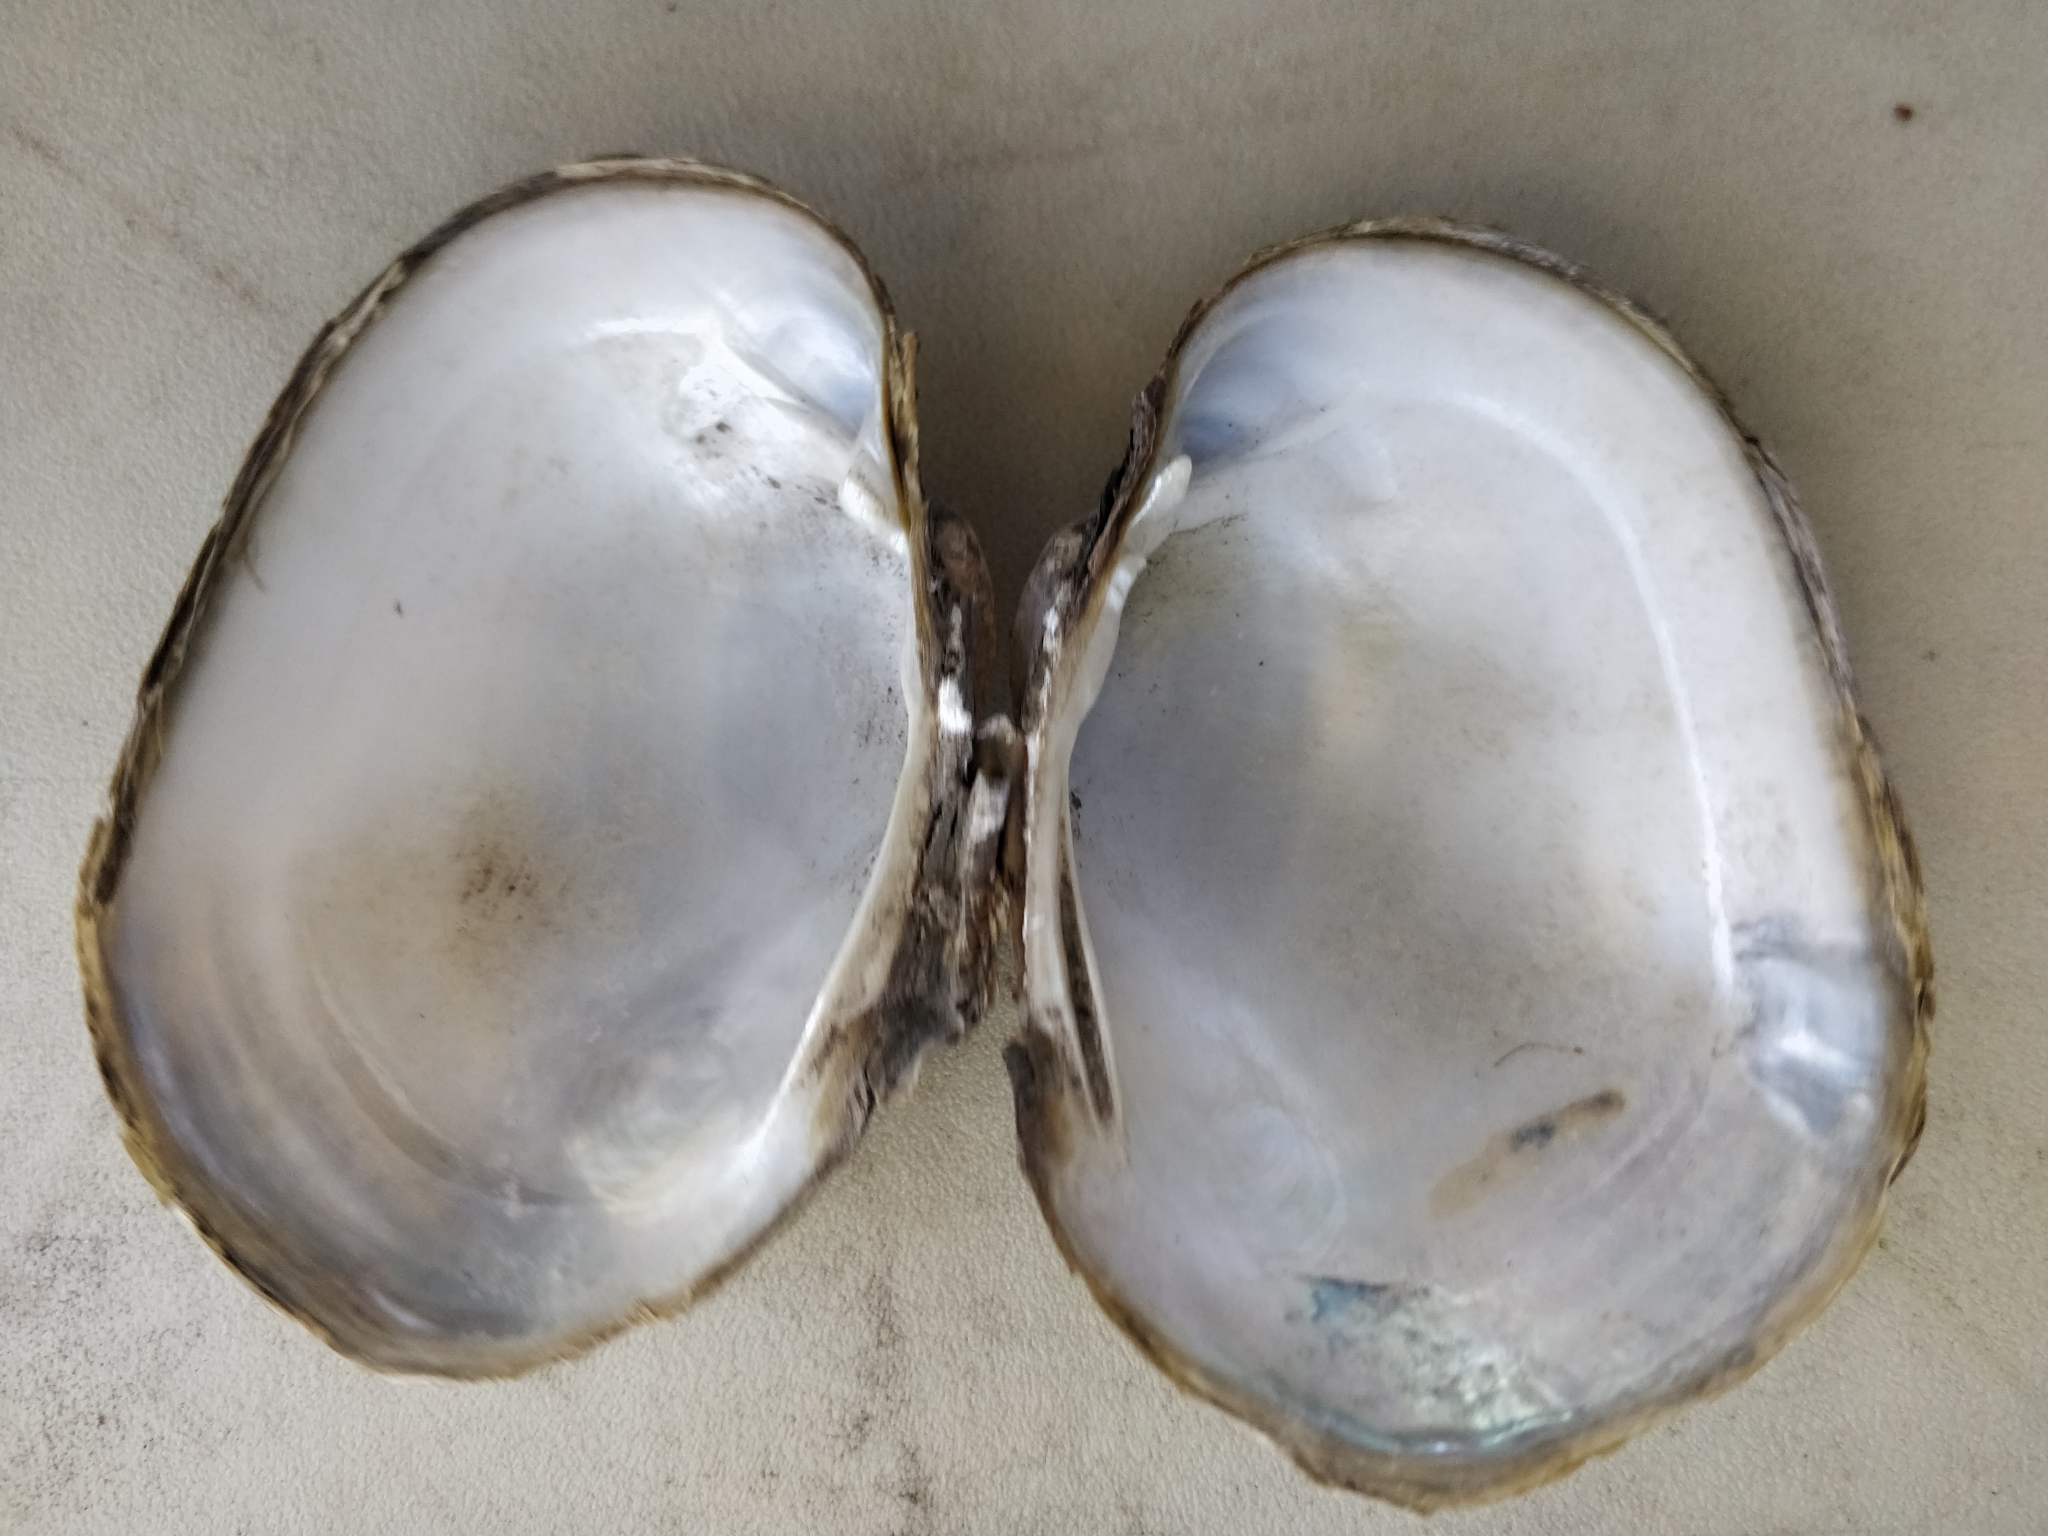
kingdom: Animalia
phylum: Mollusca
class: Bivalvia
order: Unionida
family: Unionidae
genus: Lampsilis
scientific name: Lampsilis cardium
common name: Plain pocketbook
